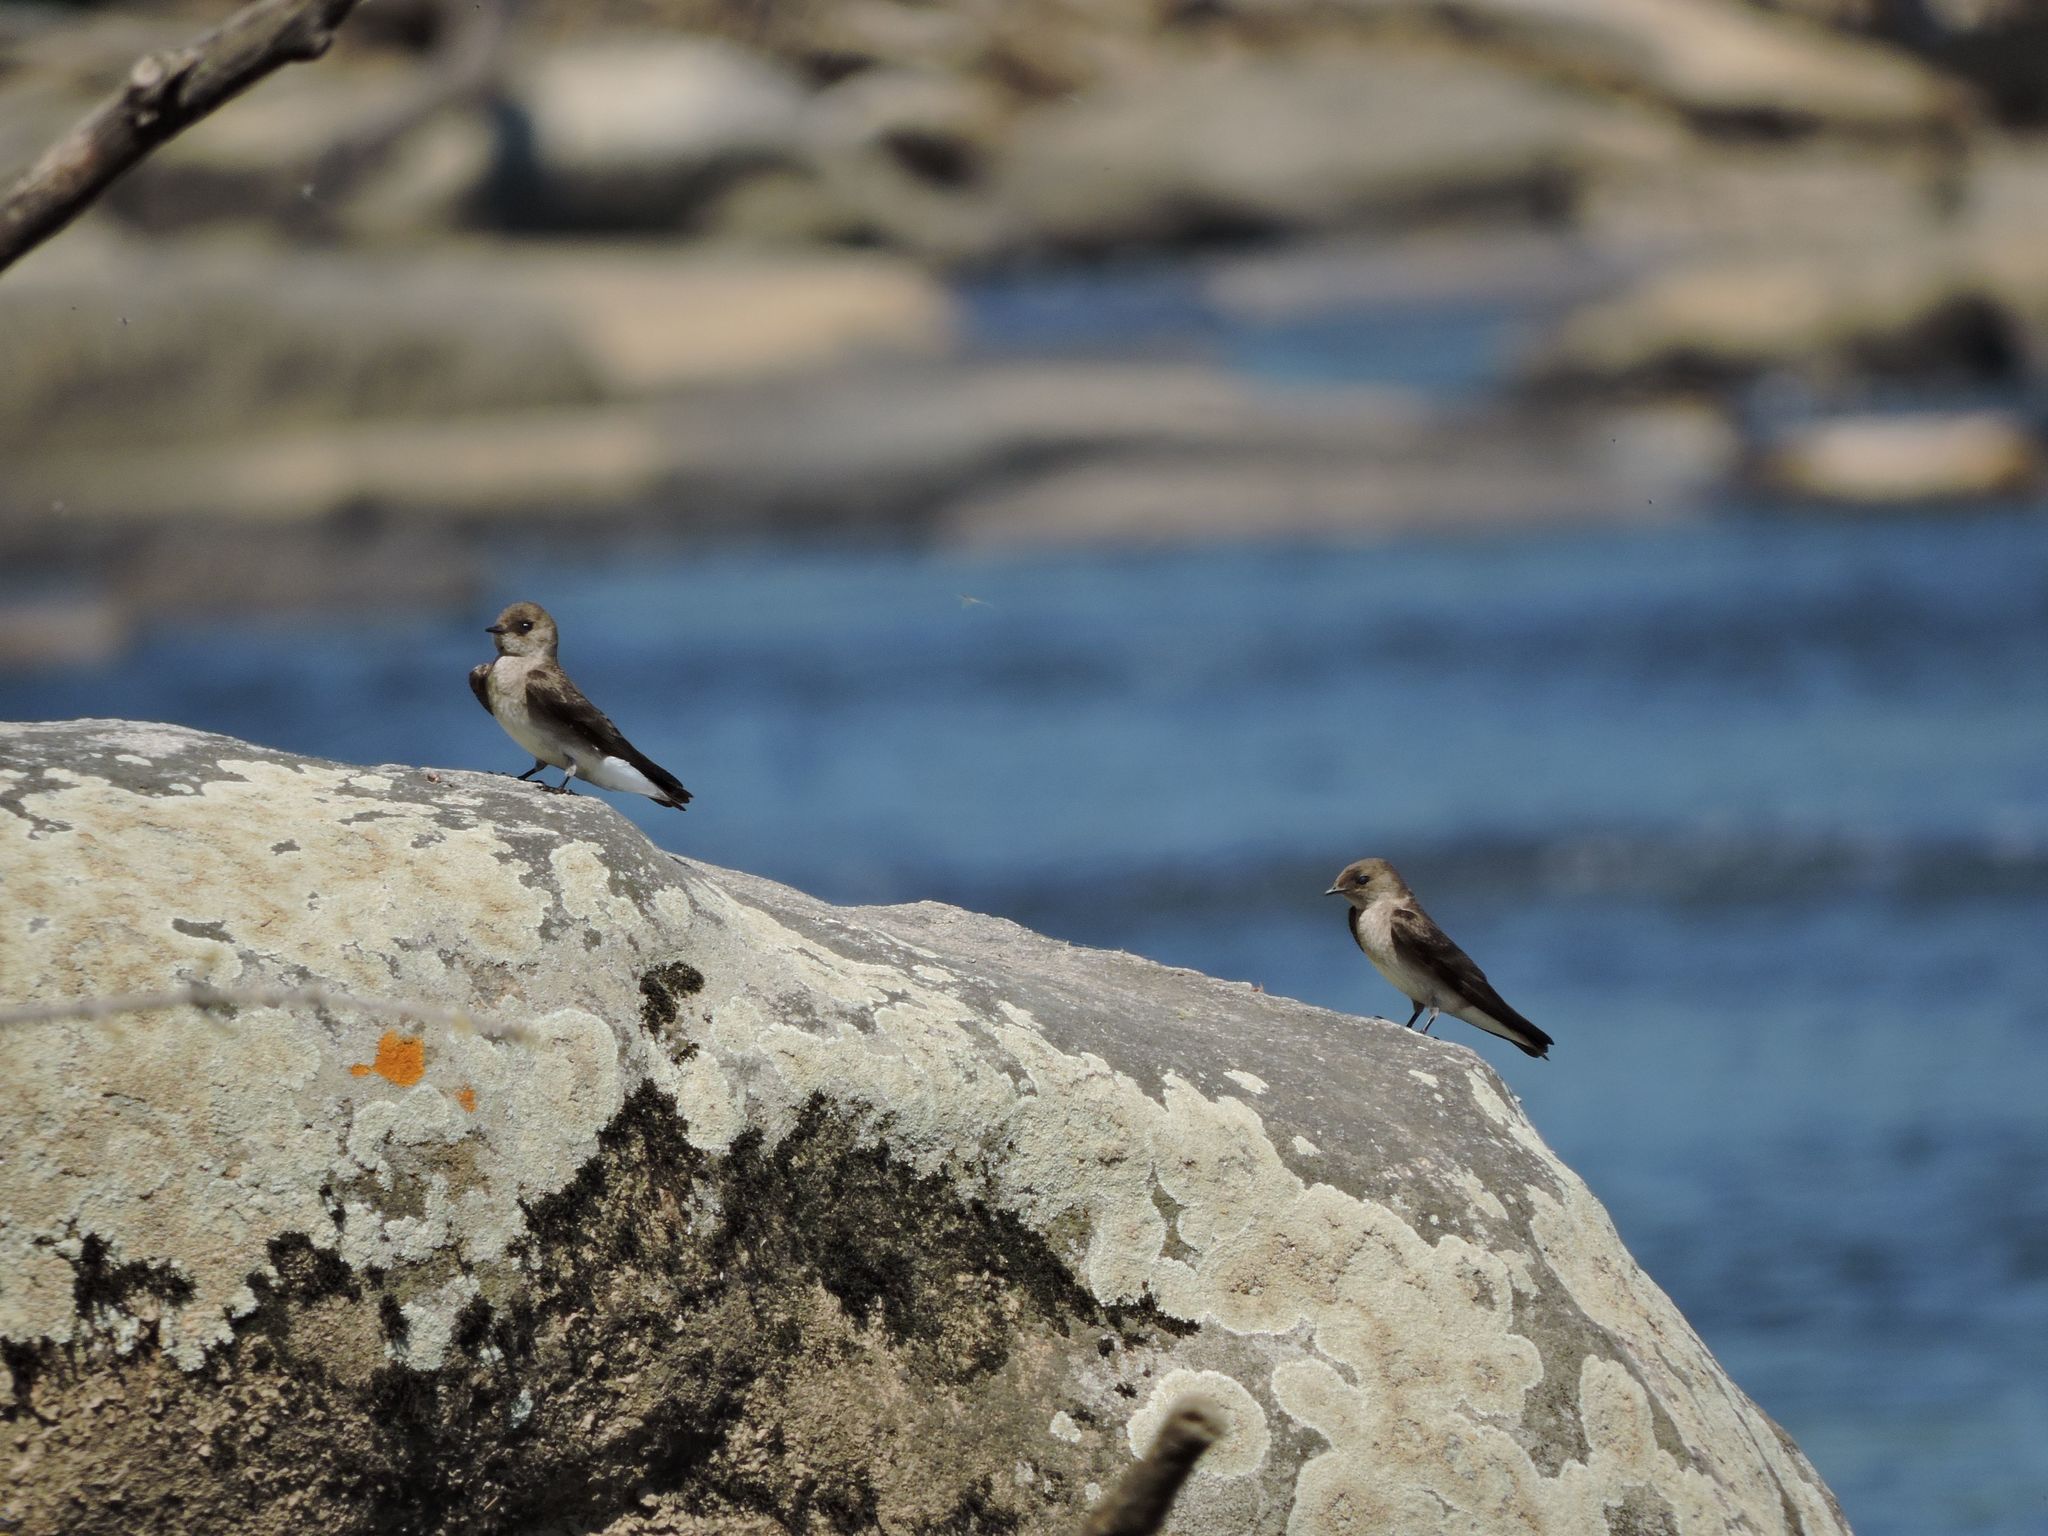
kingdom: Animalia
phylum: Chordata
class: Aves
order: Passeriformes
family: Hirundinidae
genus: Stelgidopteryx
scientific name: Stelgidopteryx serripennis
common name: Northern rough-winged swallow
